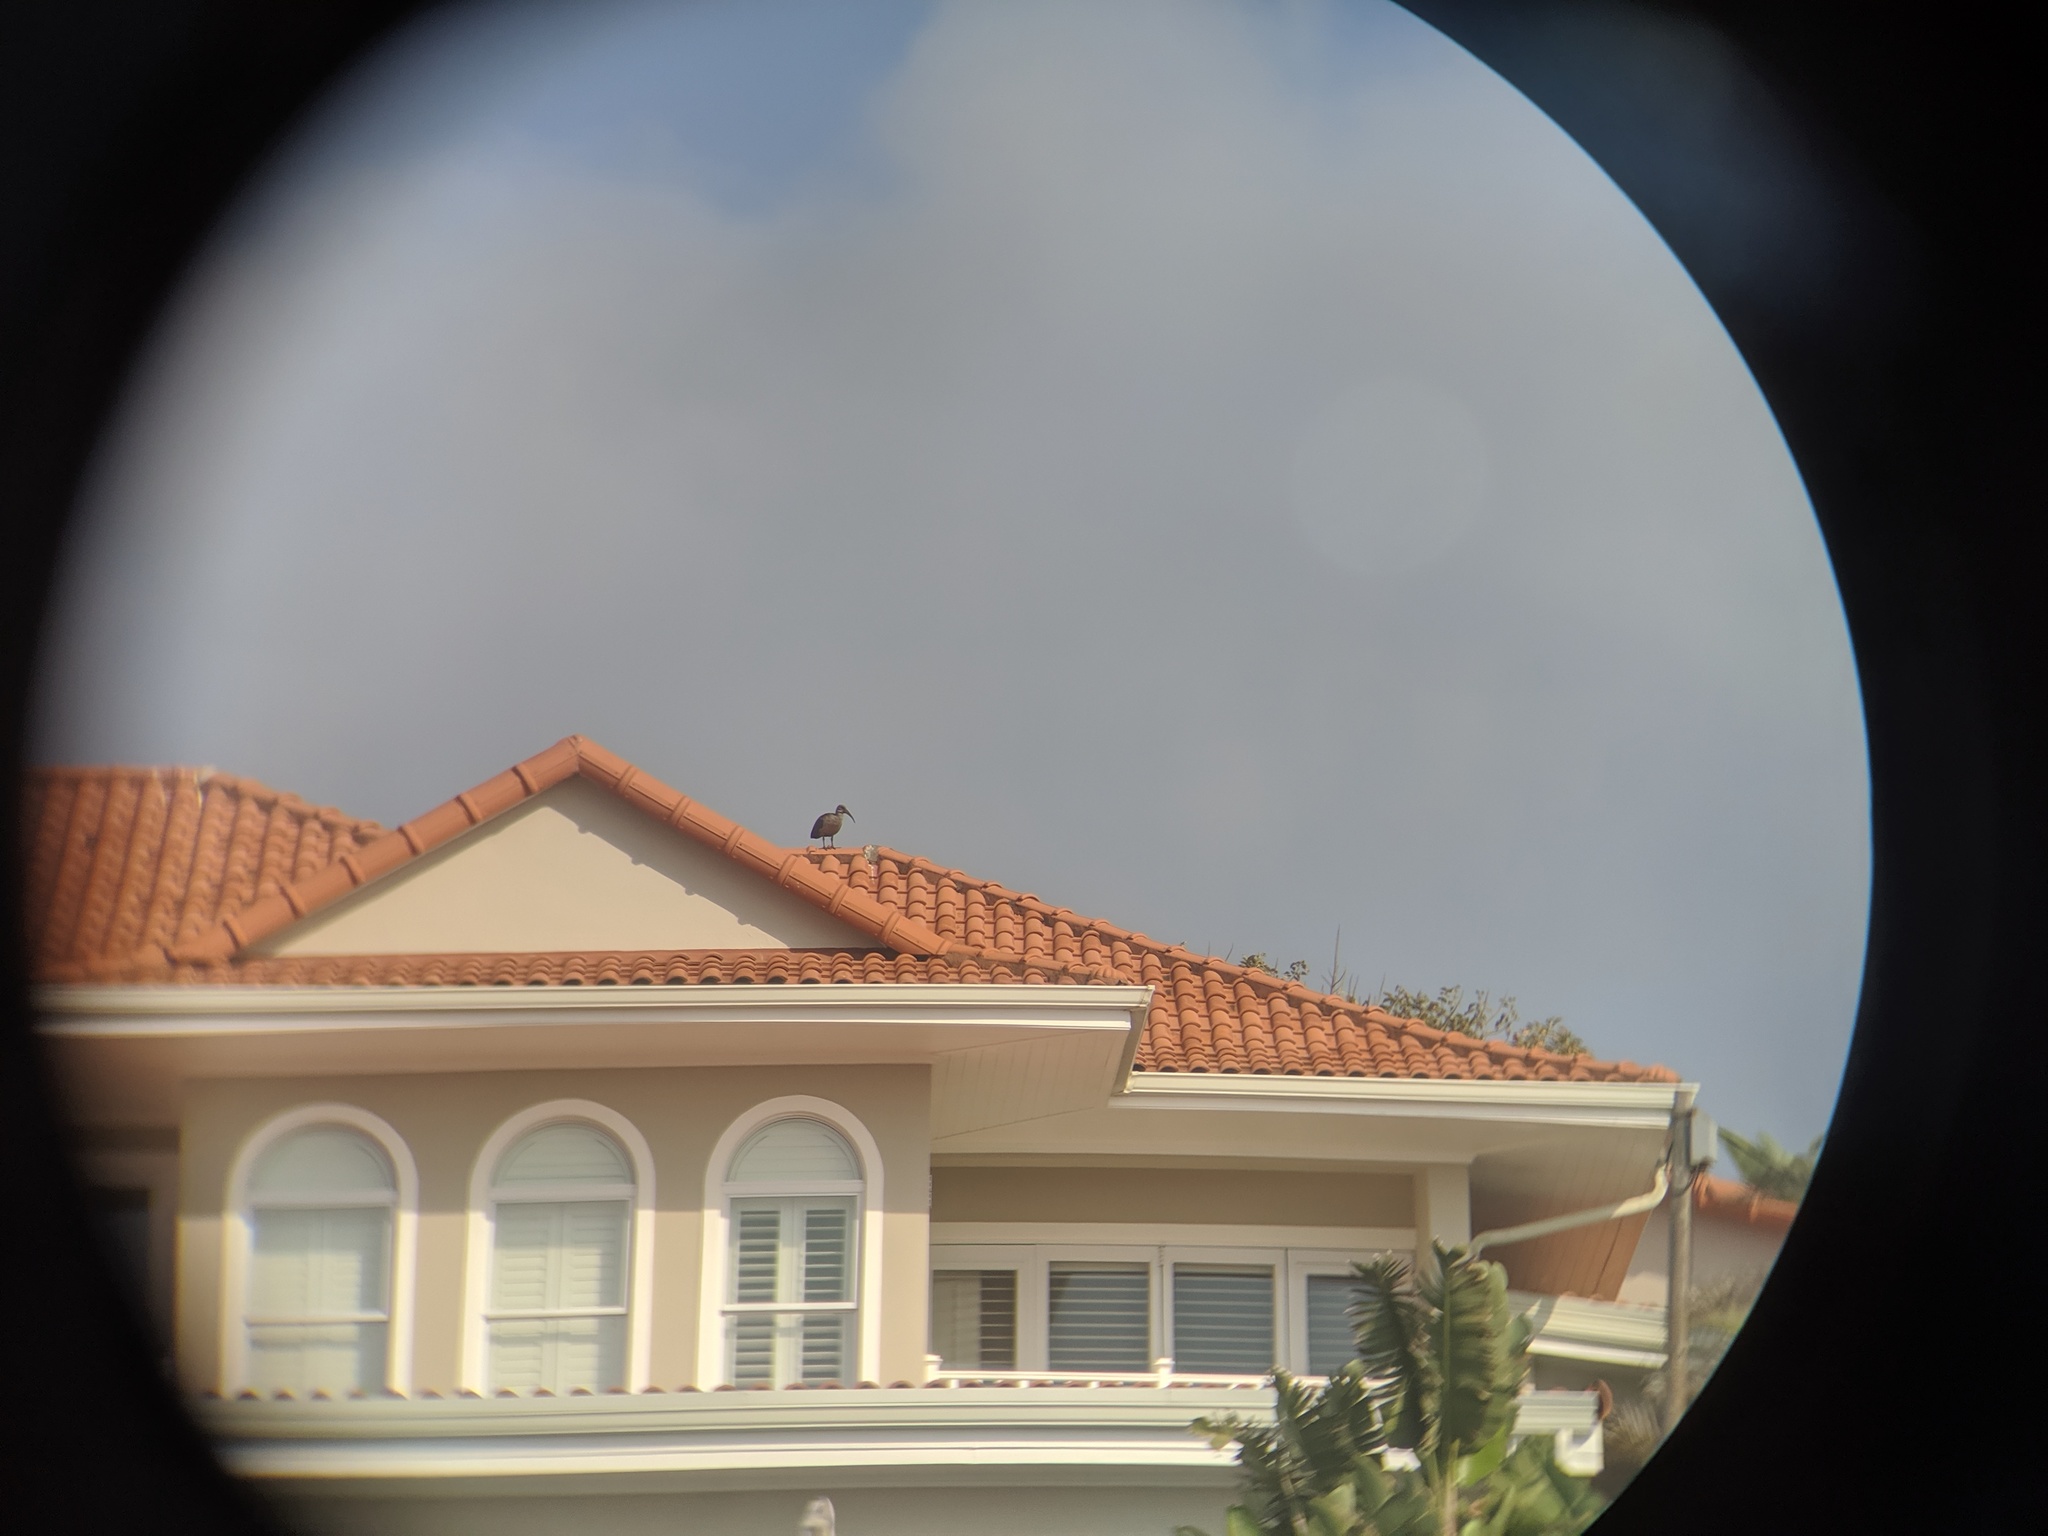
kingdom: Animalia
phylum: Chordata
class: Aves
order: Pelecaniformes
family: Threskiornithidae
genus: Bostrychia
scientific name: Bostrychia hagedash
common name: Hadada ibis
